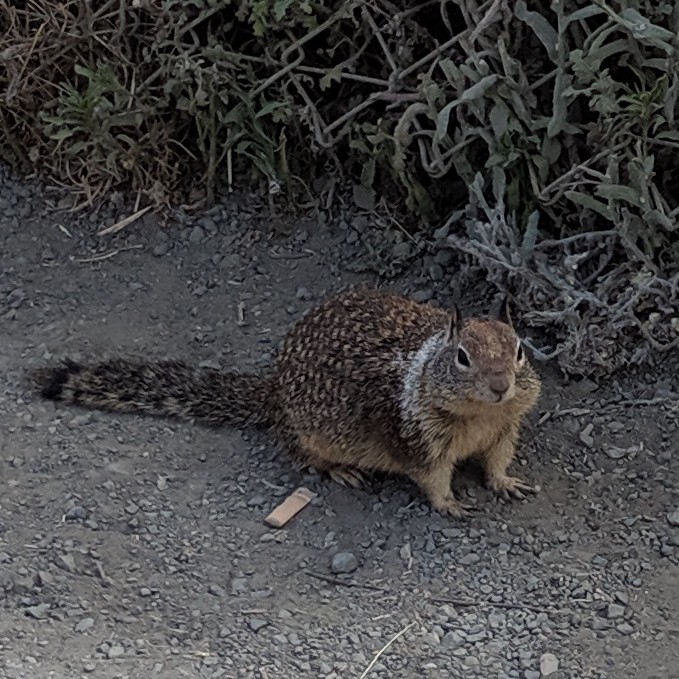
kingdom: Animalia
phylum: Chordata
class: Mammalia
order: Rodentia
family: Sciuridae
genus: Otospermophilus
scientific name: Otospermophilus beecheyi
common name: California ground squirrel
